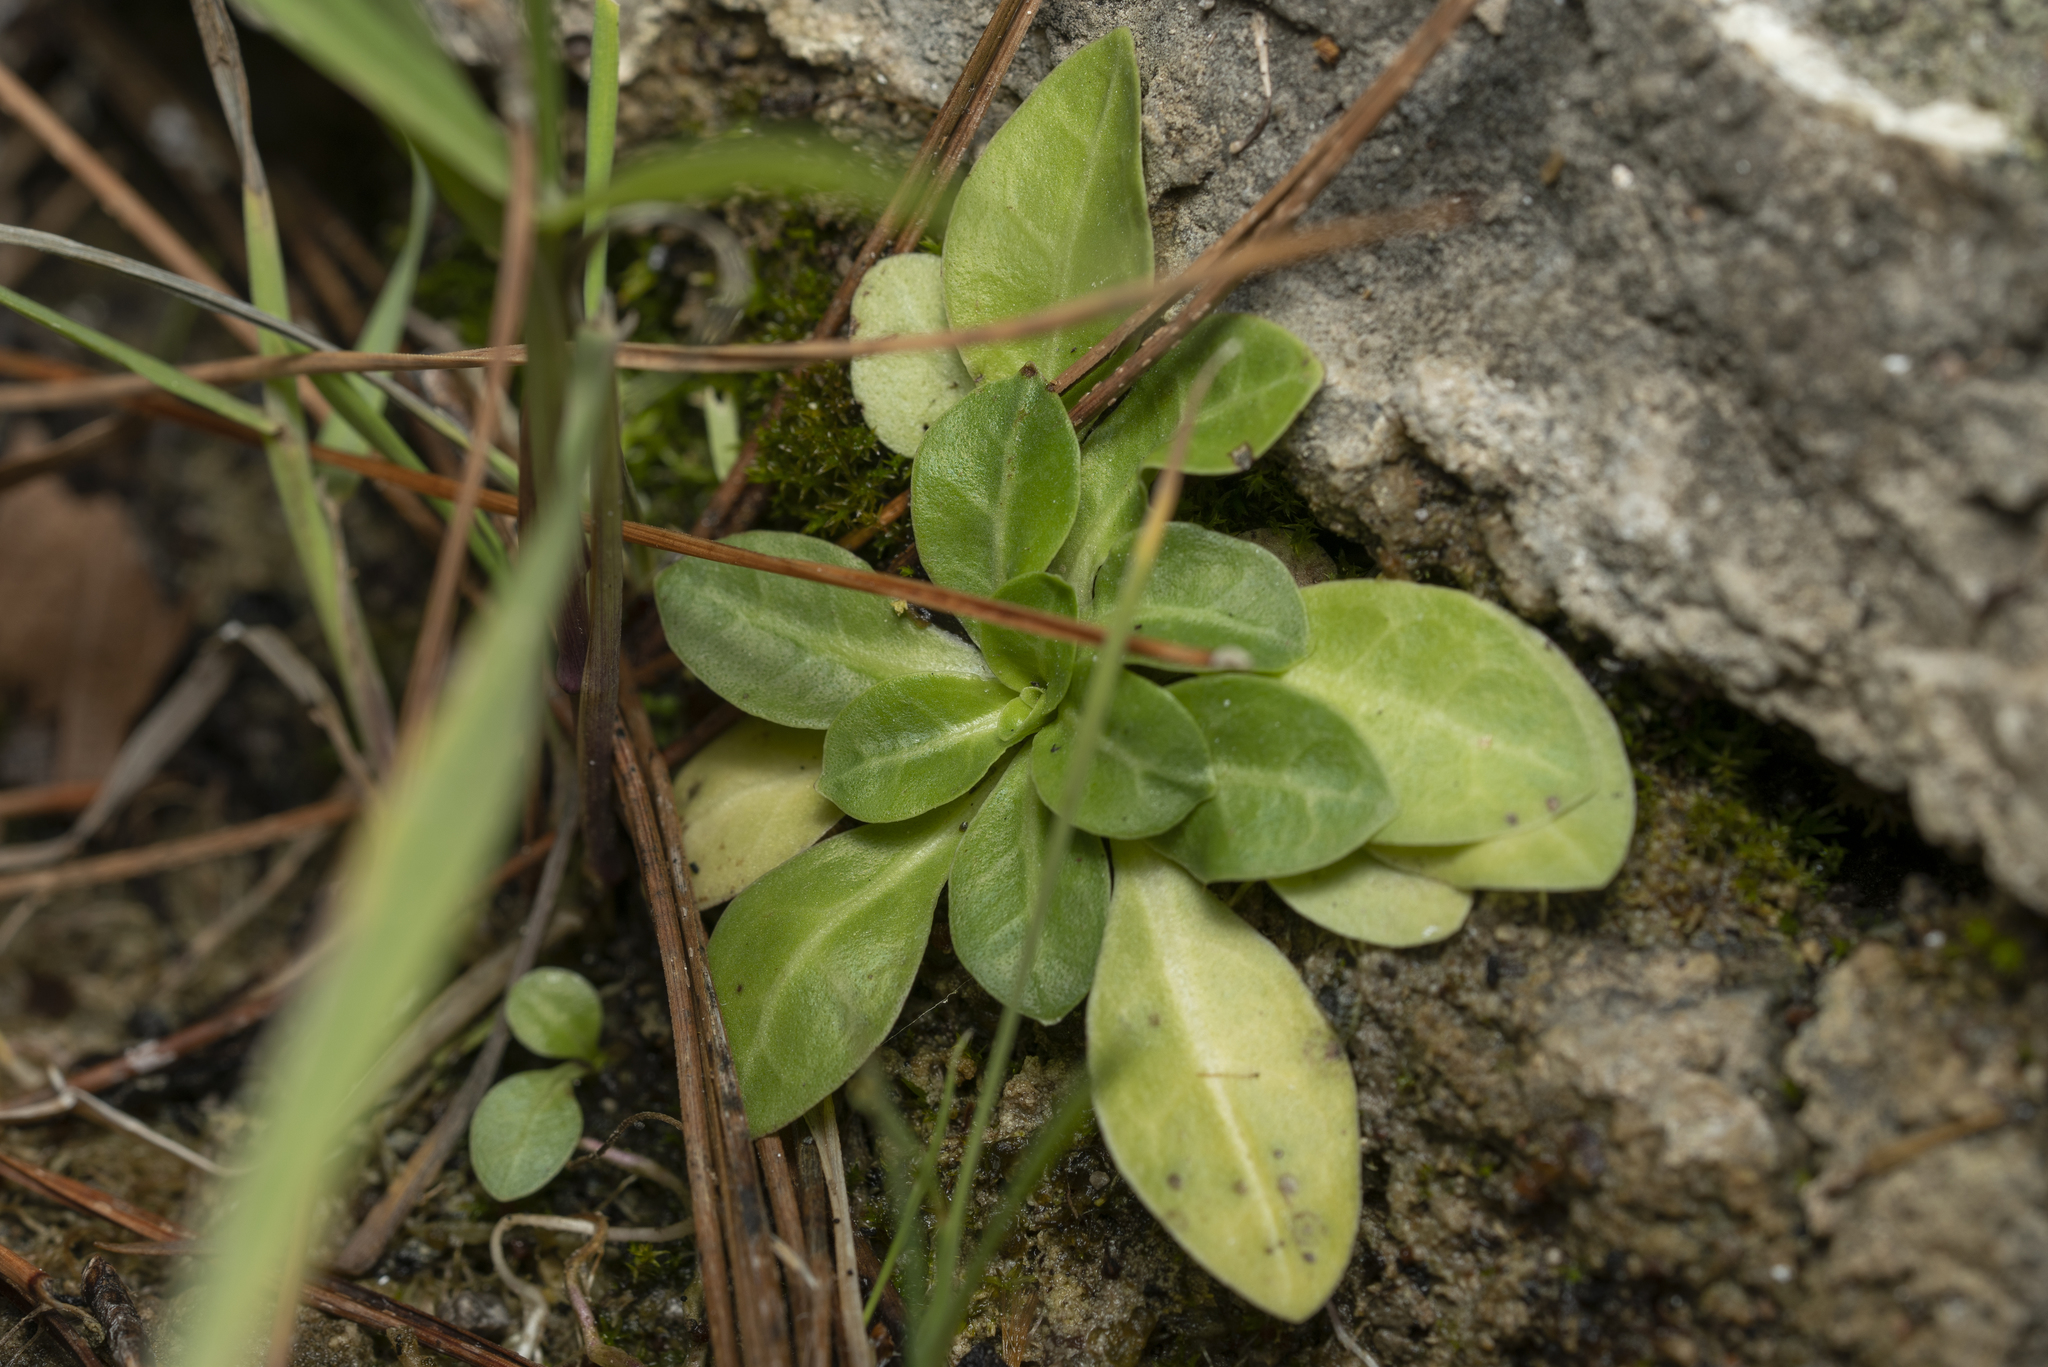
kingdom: Plantae
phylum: Tracheophyta
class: Magnoliopsida
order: Ericales
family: Primulaceae
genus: Samolus
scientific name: Samolus valerandi
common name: Brookweed
